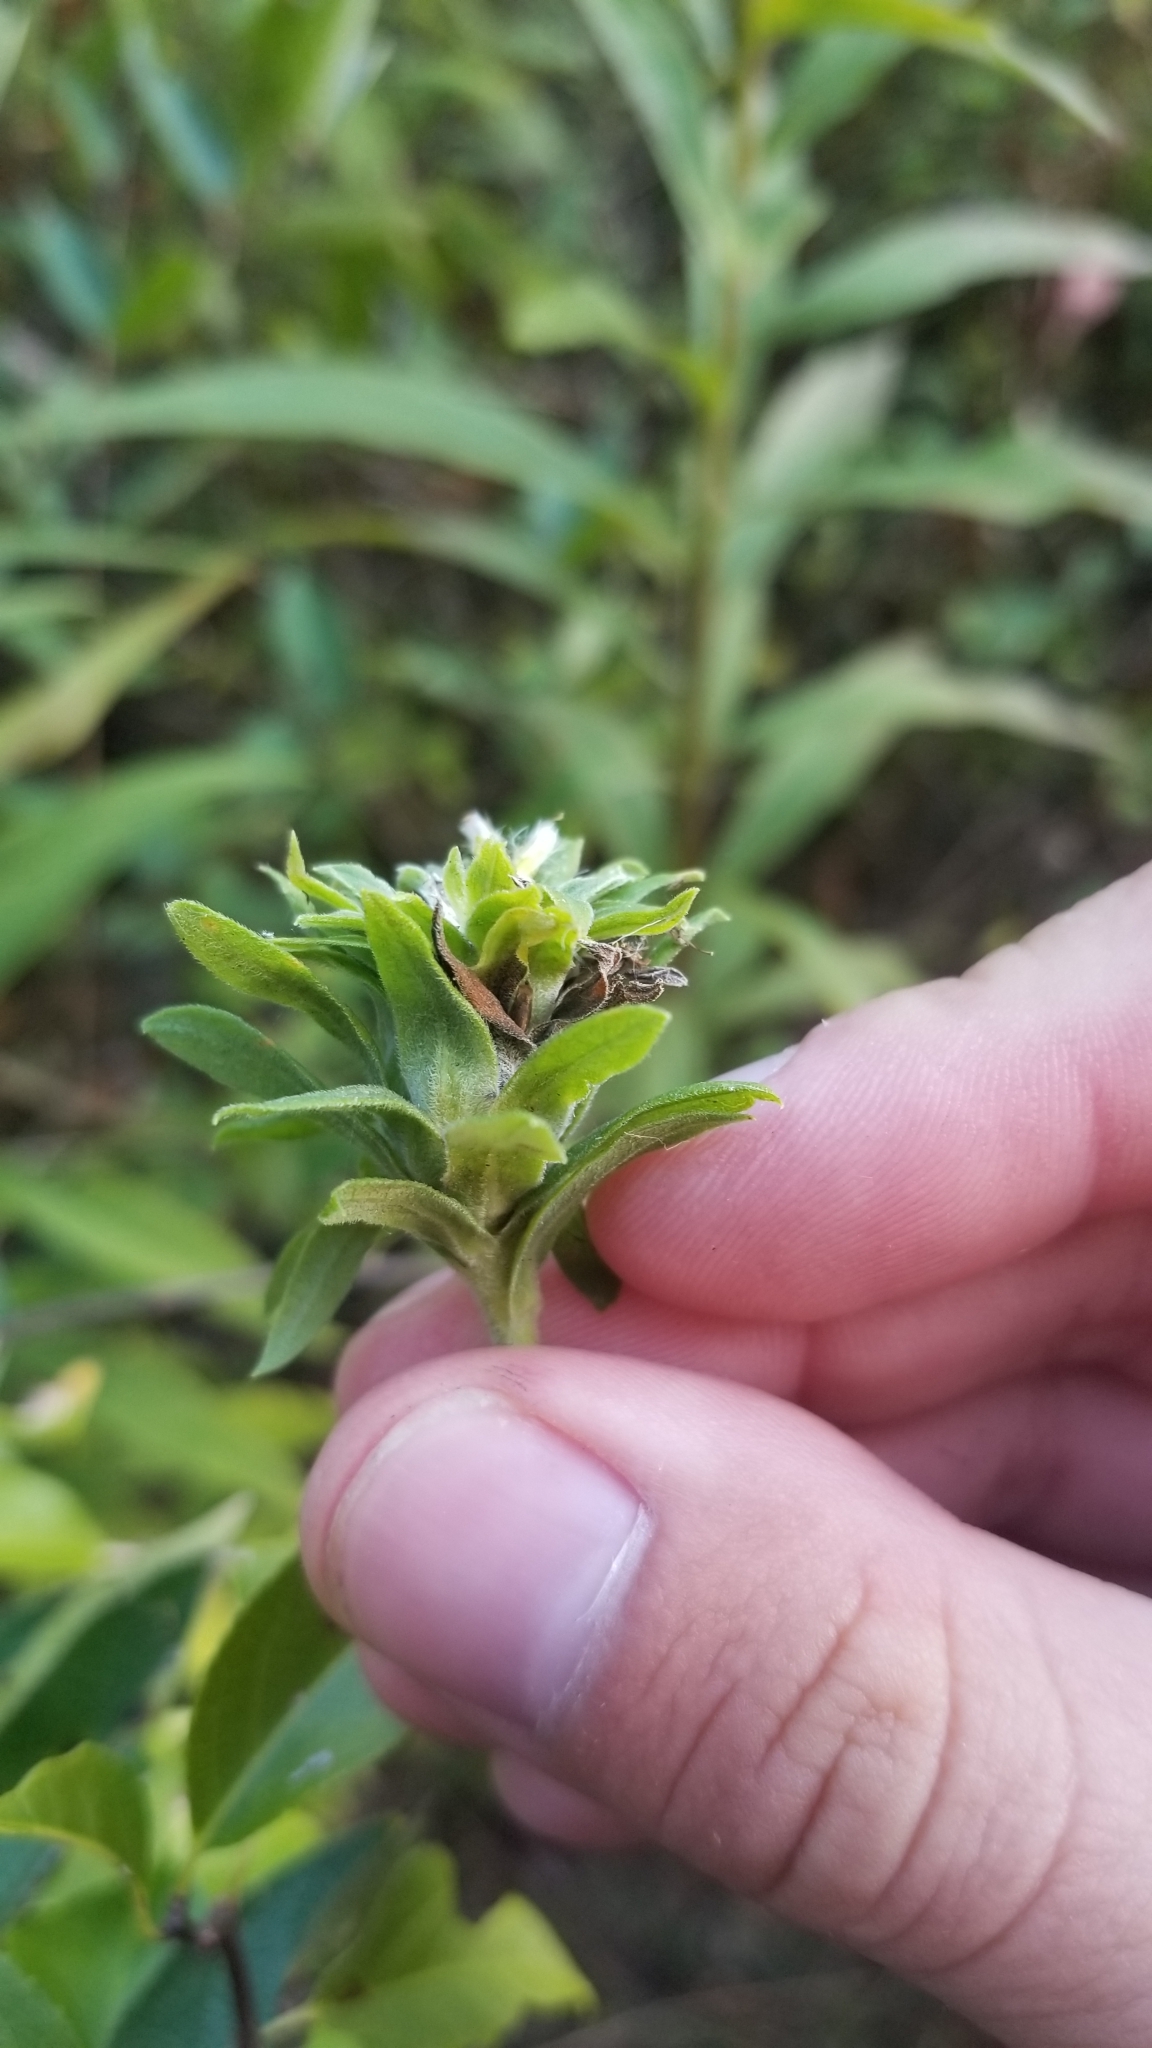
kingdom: Animalia
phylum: Arthropoda
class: Insecta
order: Diptera
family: Tephritidae
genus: Procecidochares
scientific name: Procecidochares atra
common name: Goldenrod brussels sprout gall fly
